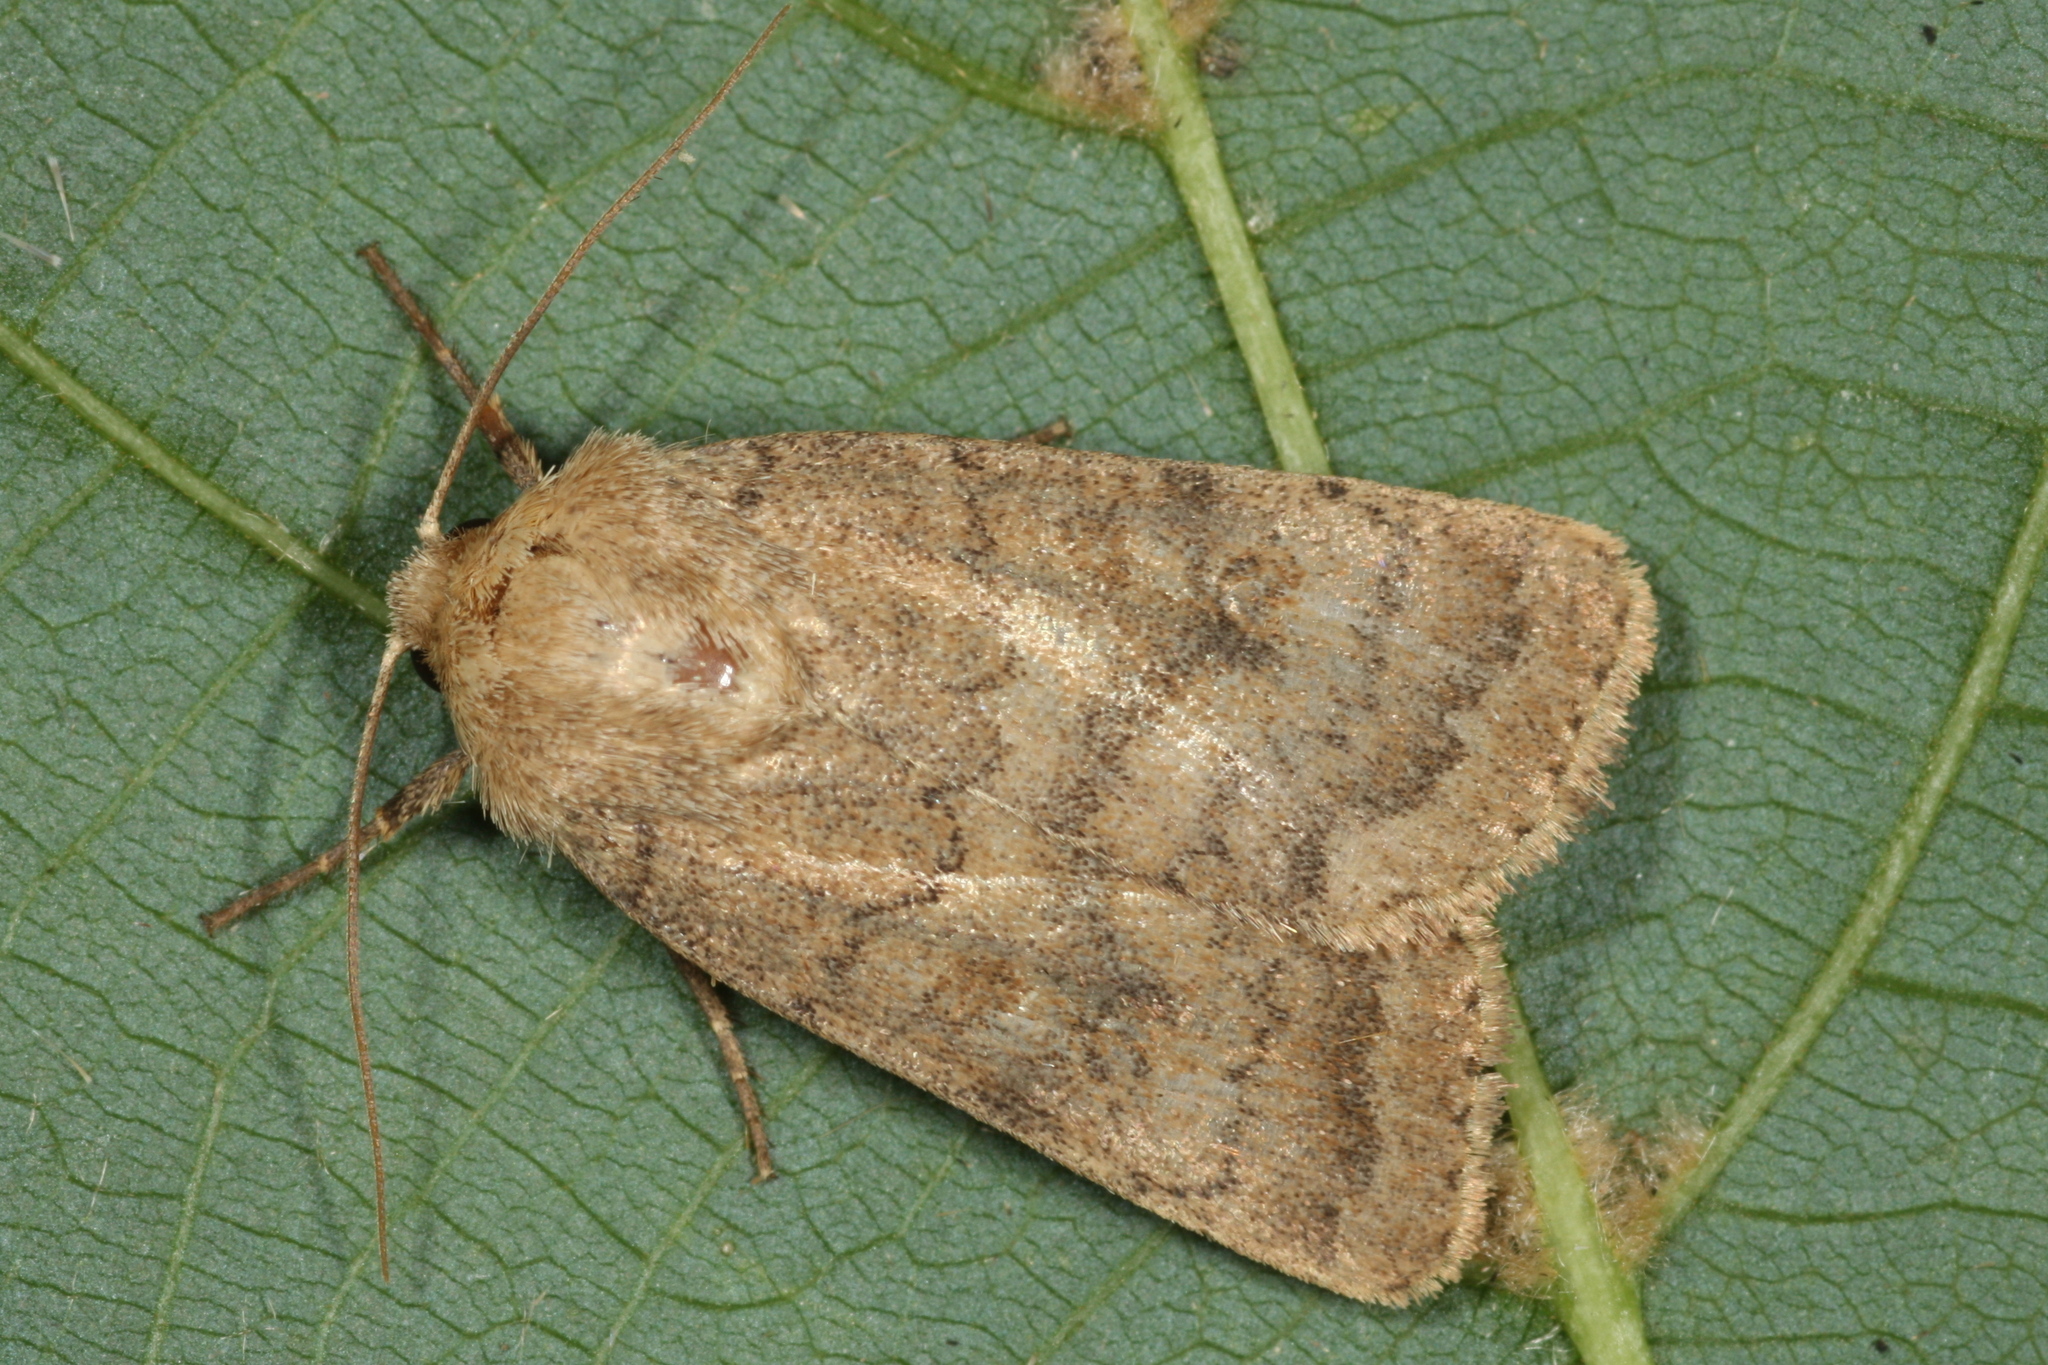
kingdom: Animalia
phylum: Arthropoda
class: Insecta
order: Lepidoptera
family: Noctuidae
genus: Hoplodrina
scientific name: Hoplodrina octogenaria
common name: Uncertain
